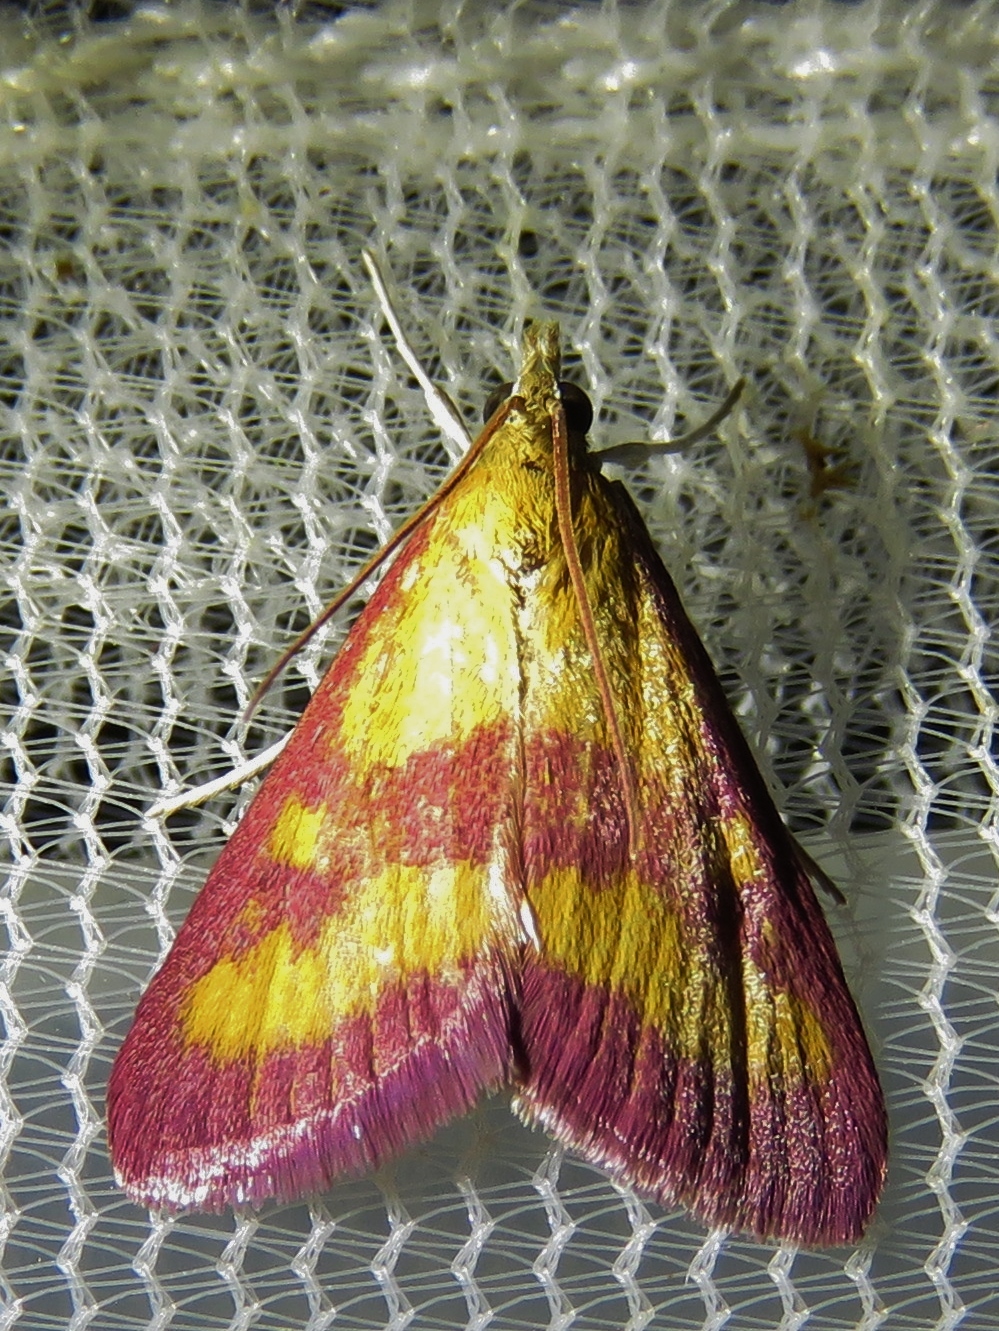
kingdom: Animalia
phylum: Arthropoda
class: Insecta
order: Lepidoptera
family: Crambidae
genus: Pyrausta
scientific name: Pyrausta laticlavia
